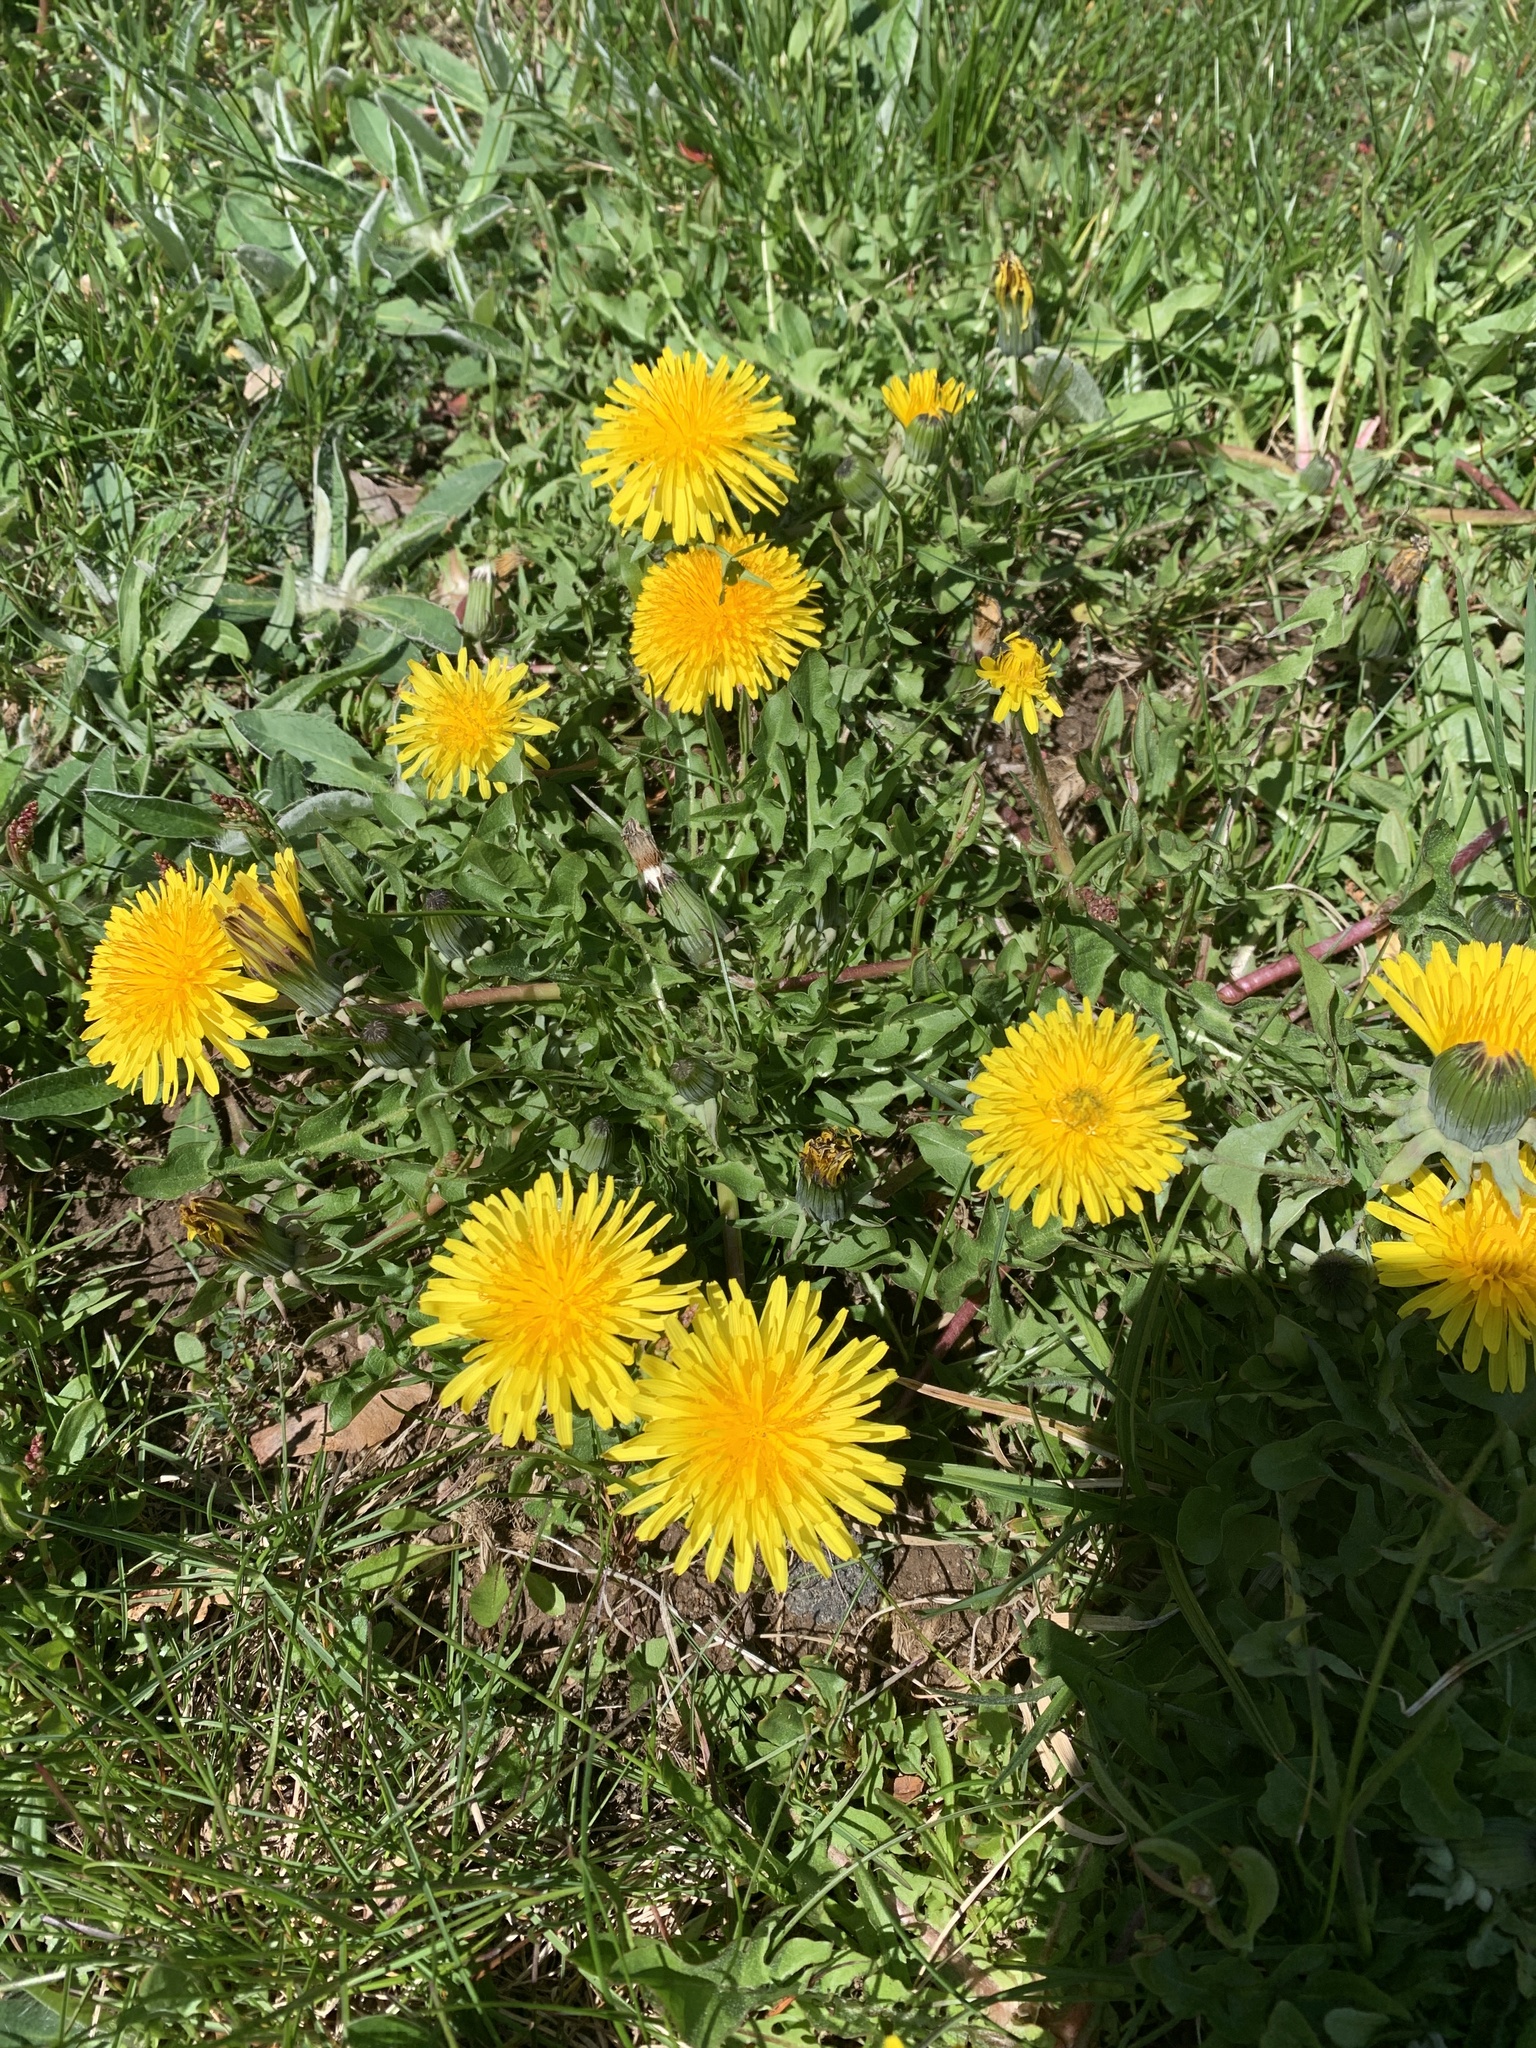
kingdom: Plantae
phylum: Tracheophyta
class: Magnoliopsida
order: Asterales
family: Asteraceae
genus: Taraxacum
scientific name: Taraxacum officinale
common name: Common dandelion
